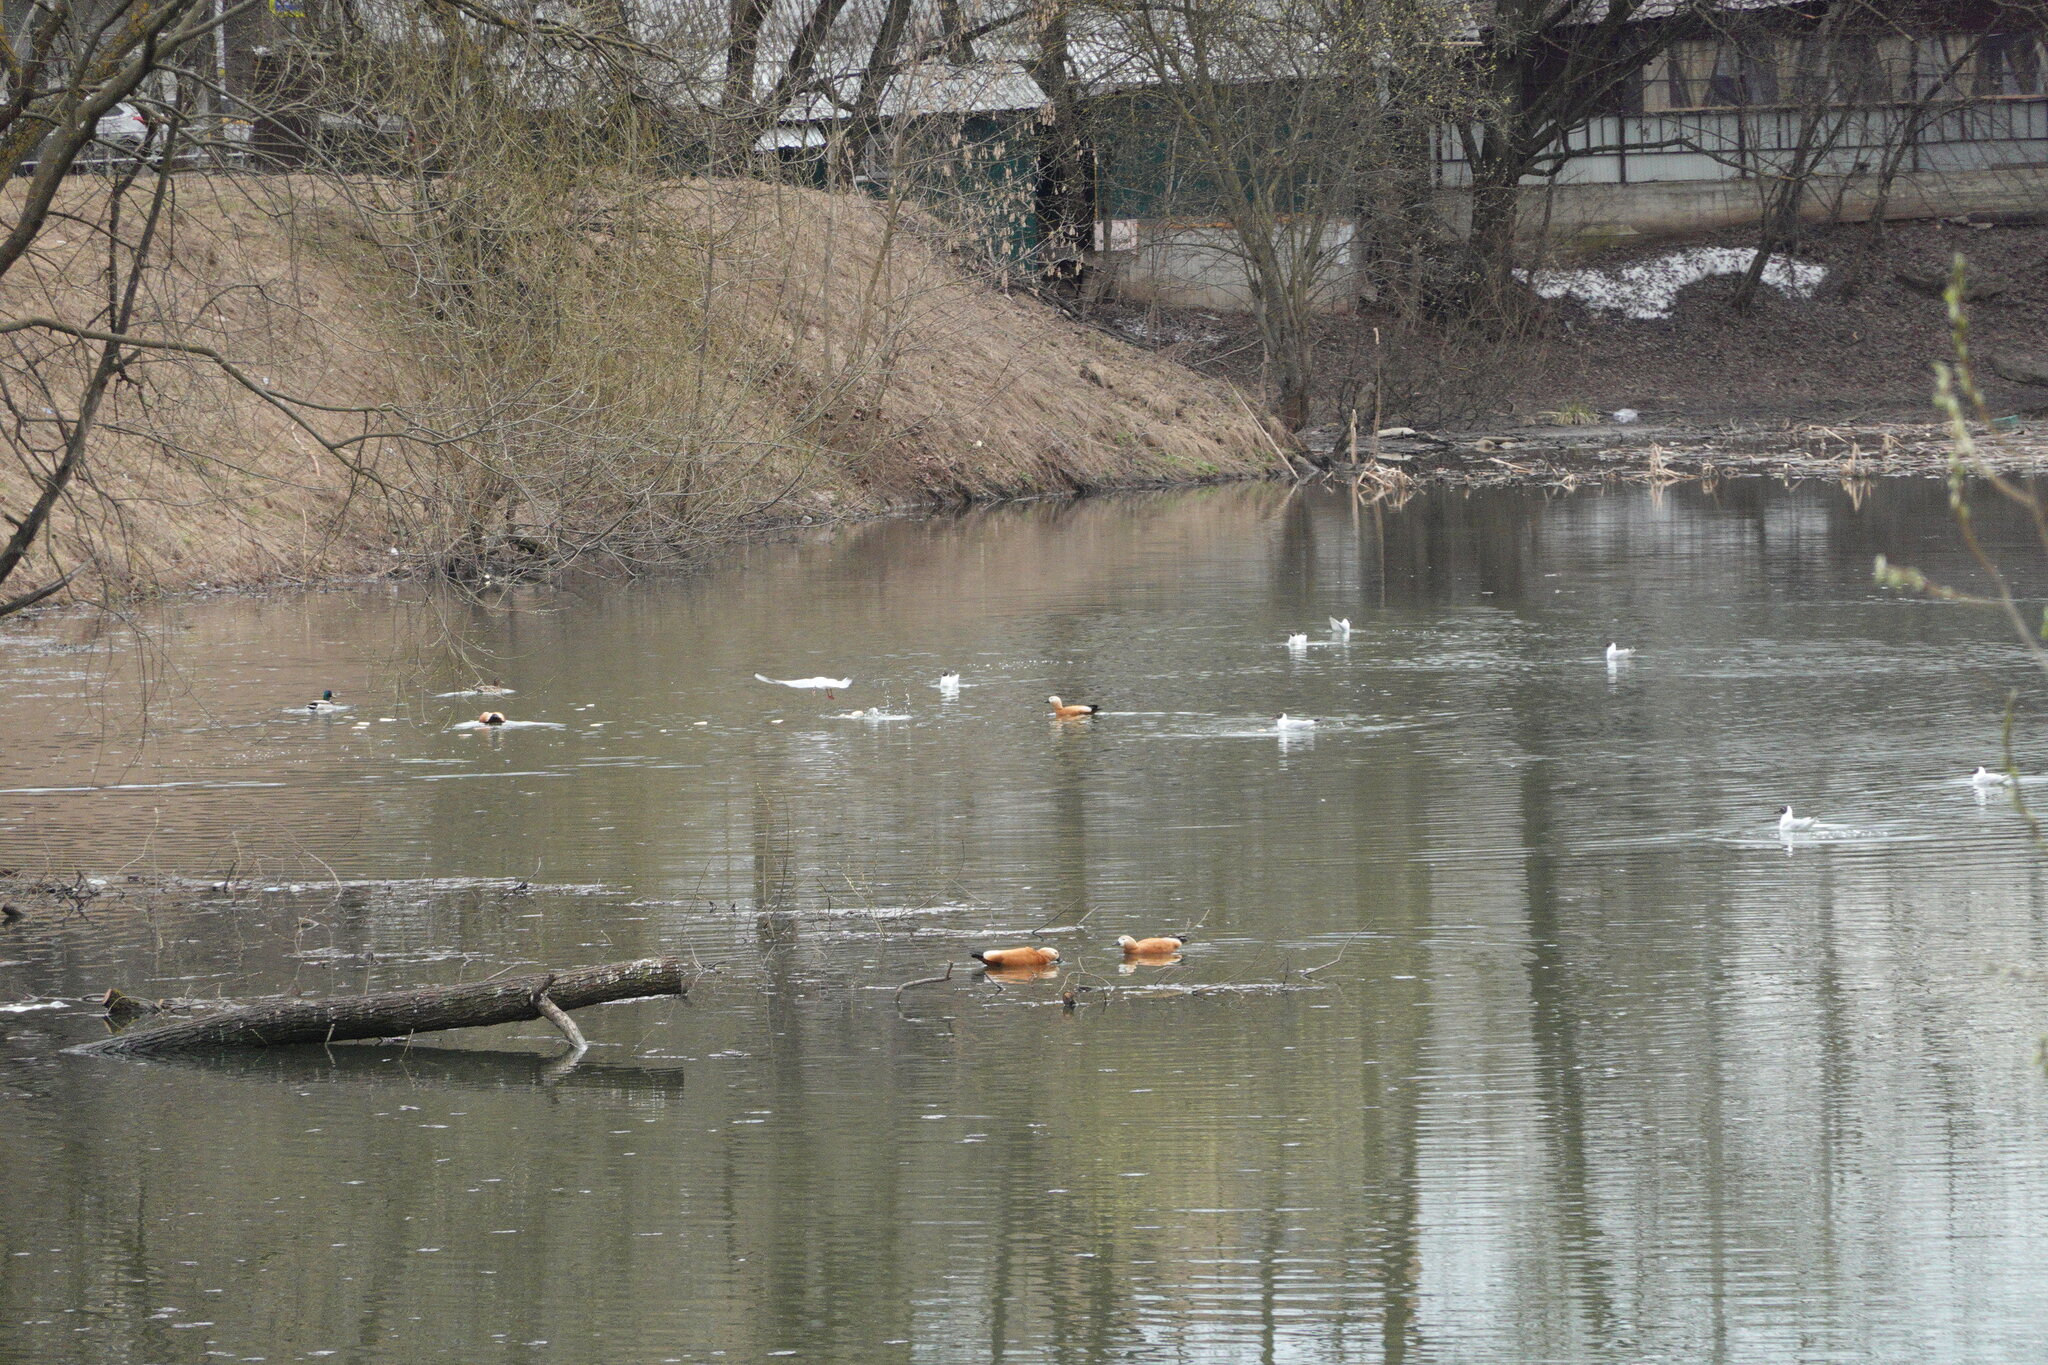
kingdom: Animalia
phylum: Chordata
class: Aves
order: Anseriformes
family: Anatidae
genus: Tadorna
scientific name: Tadorna ferruginea
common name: Ruddy shelduck
